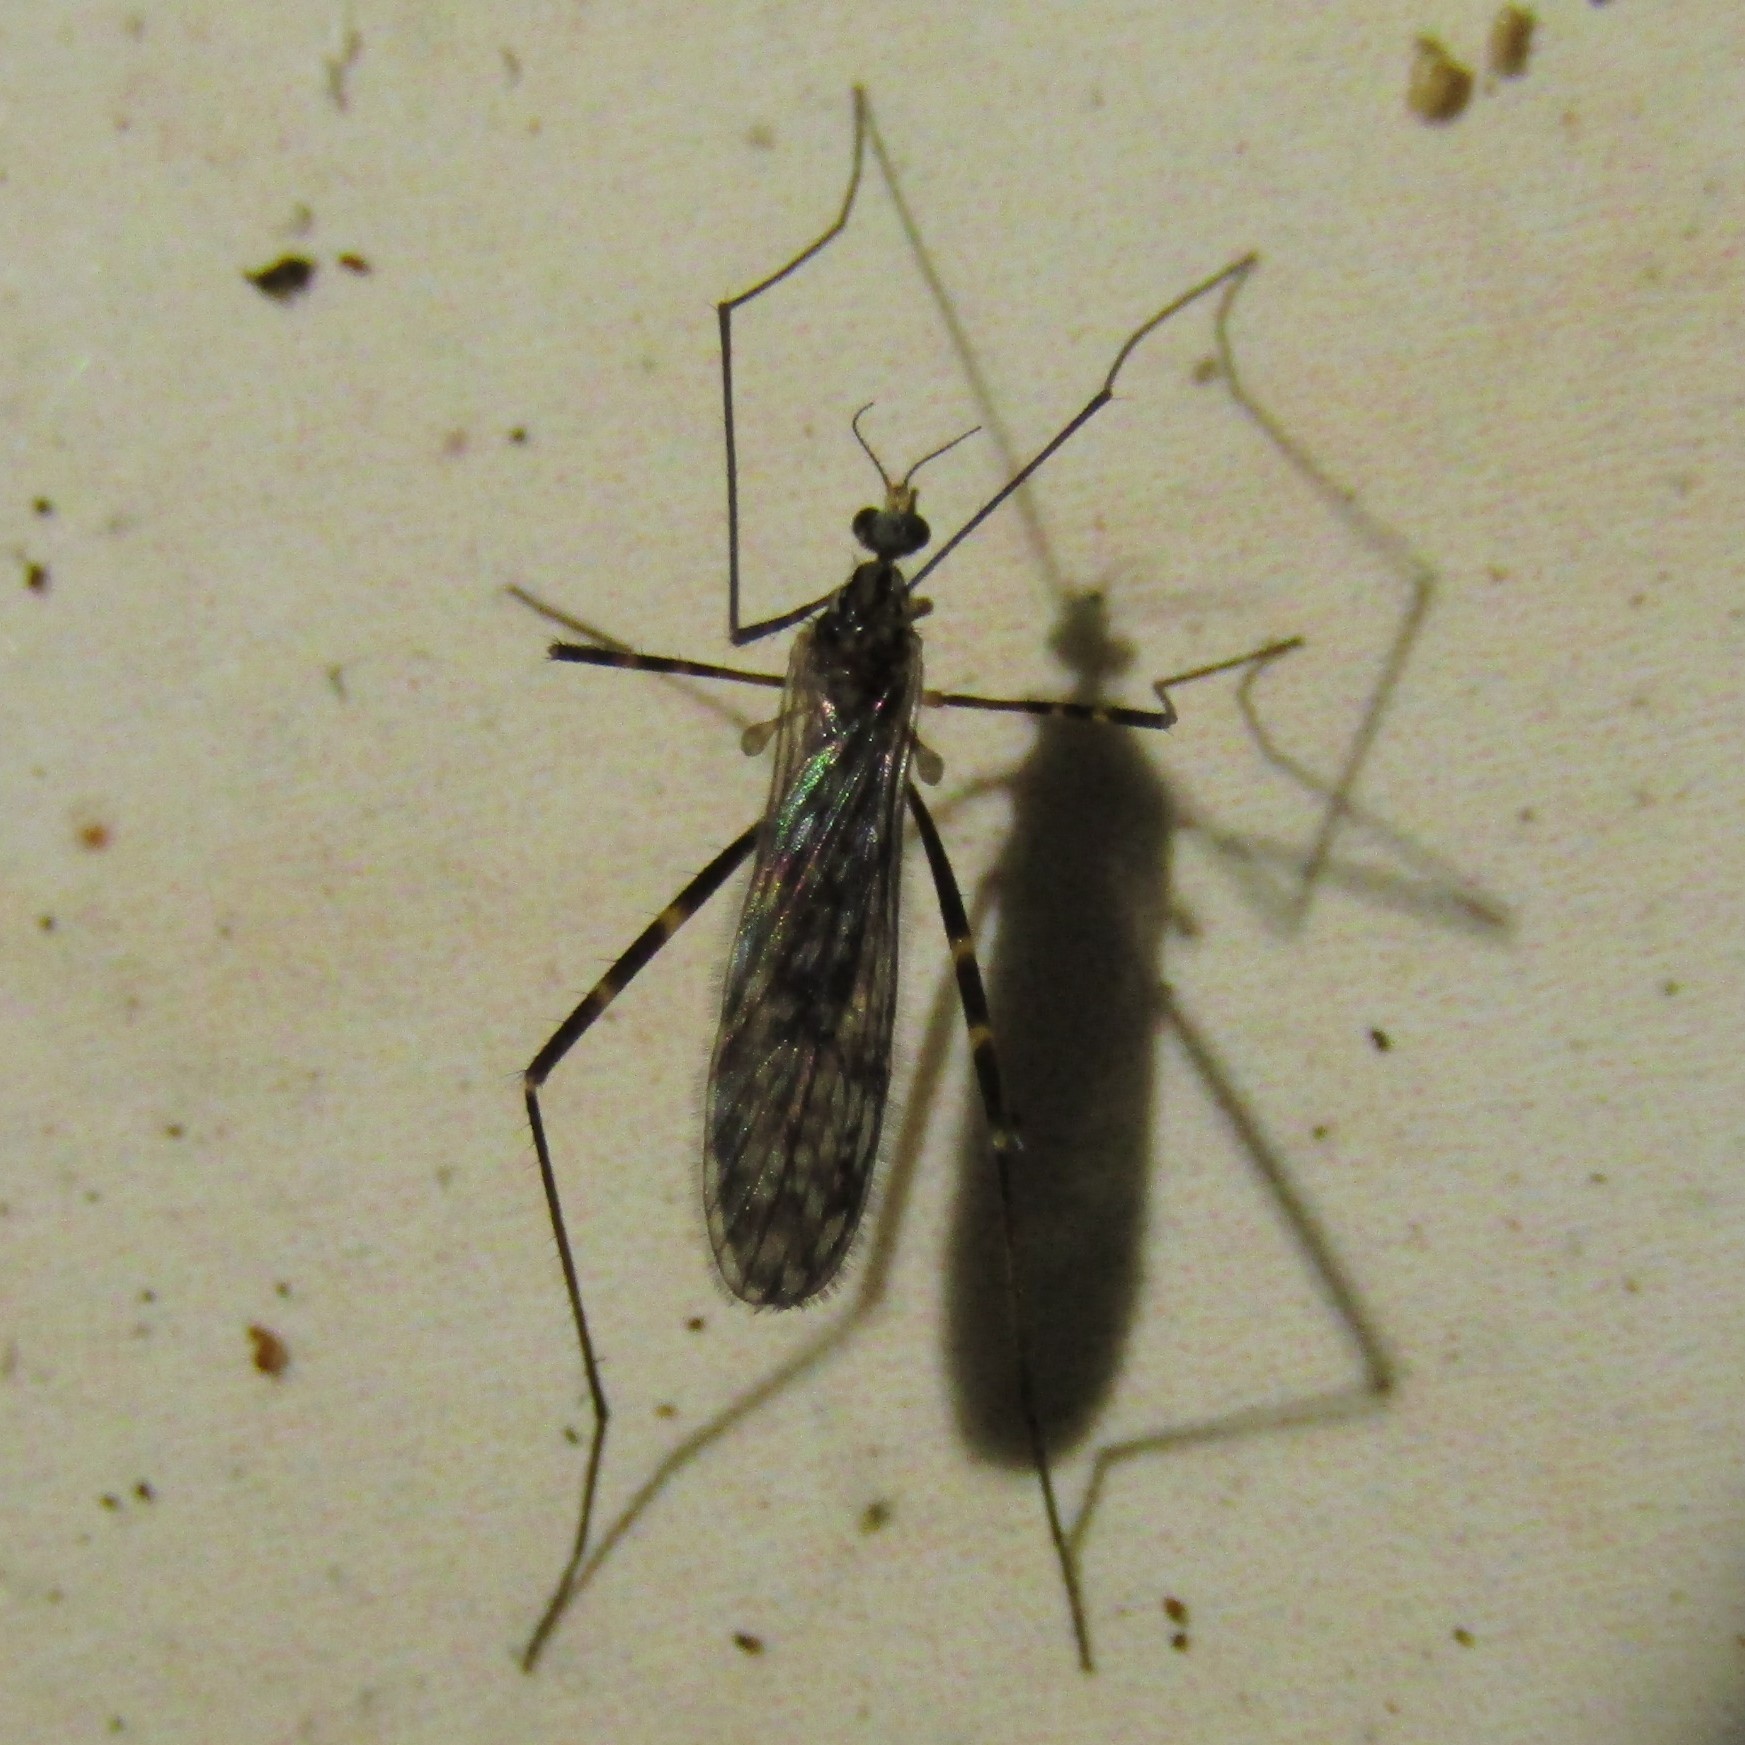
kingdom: Animalia
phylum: Arthropoda
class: Insecta
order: Diptera
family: Limoniidae
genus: Amphineurus
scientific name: Amphineurus bicinctus
